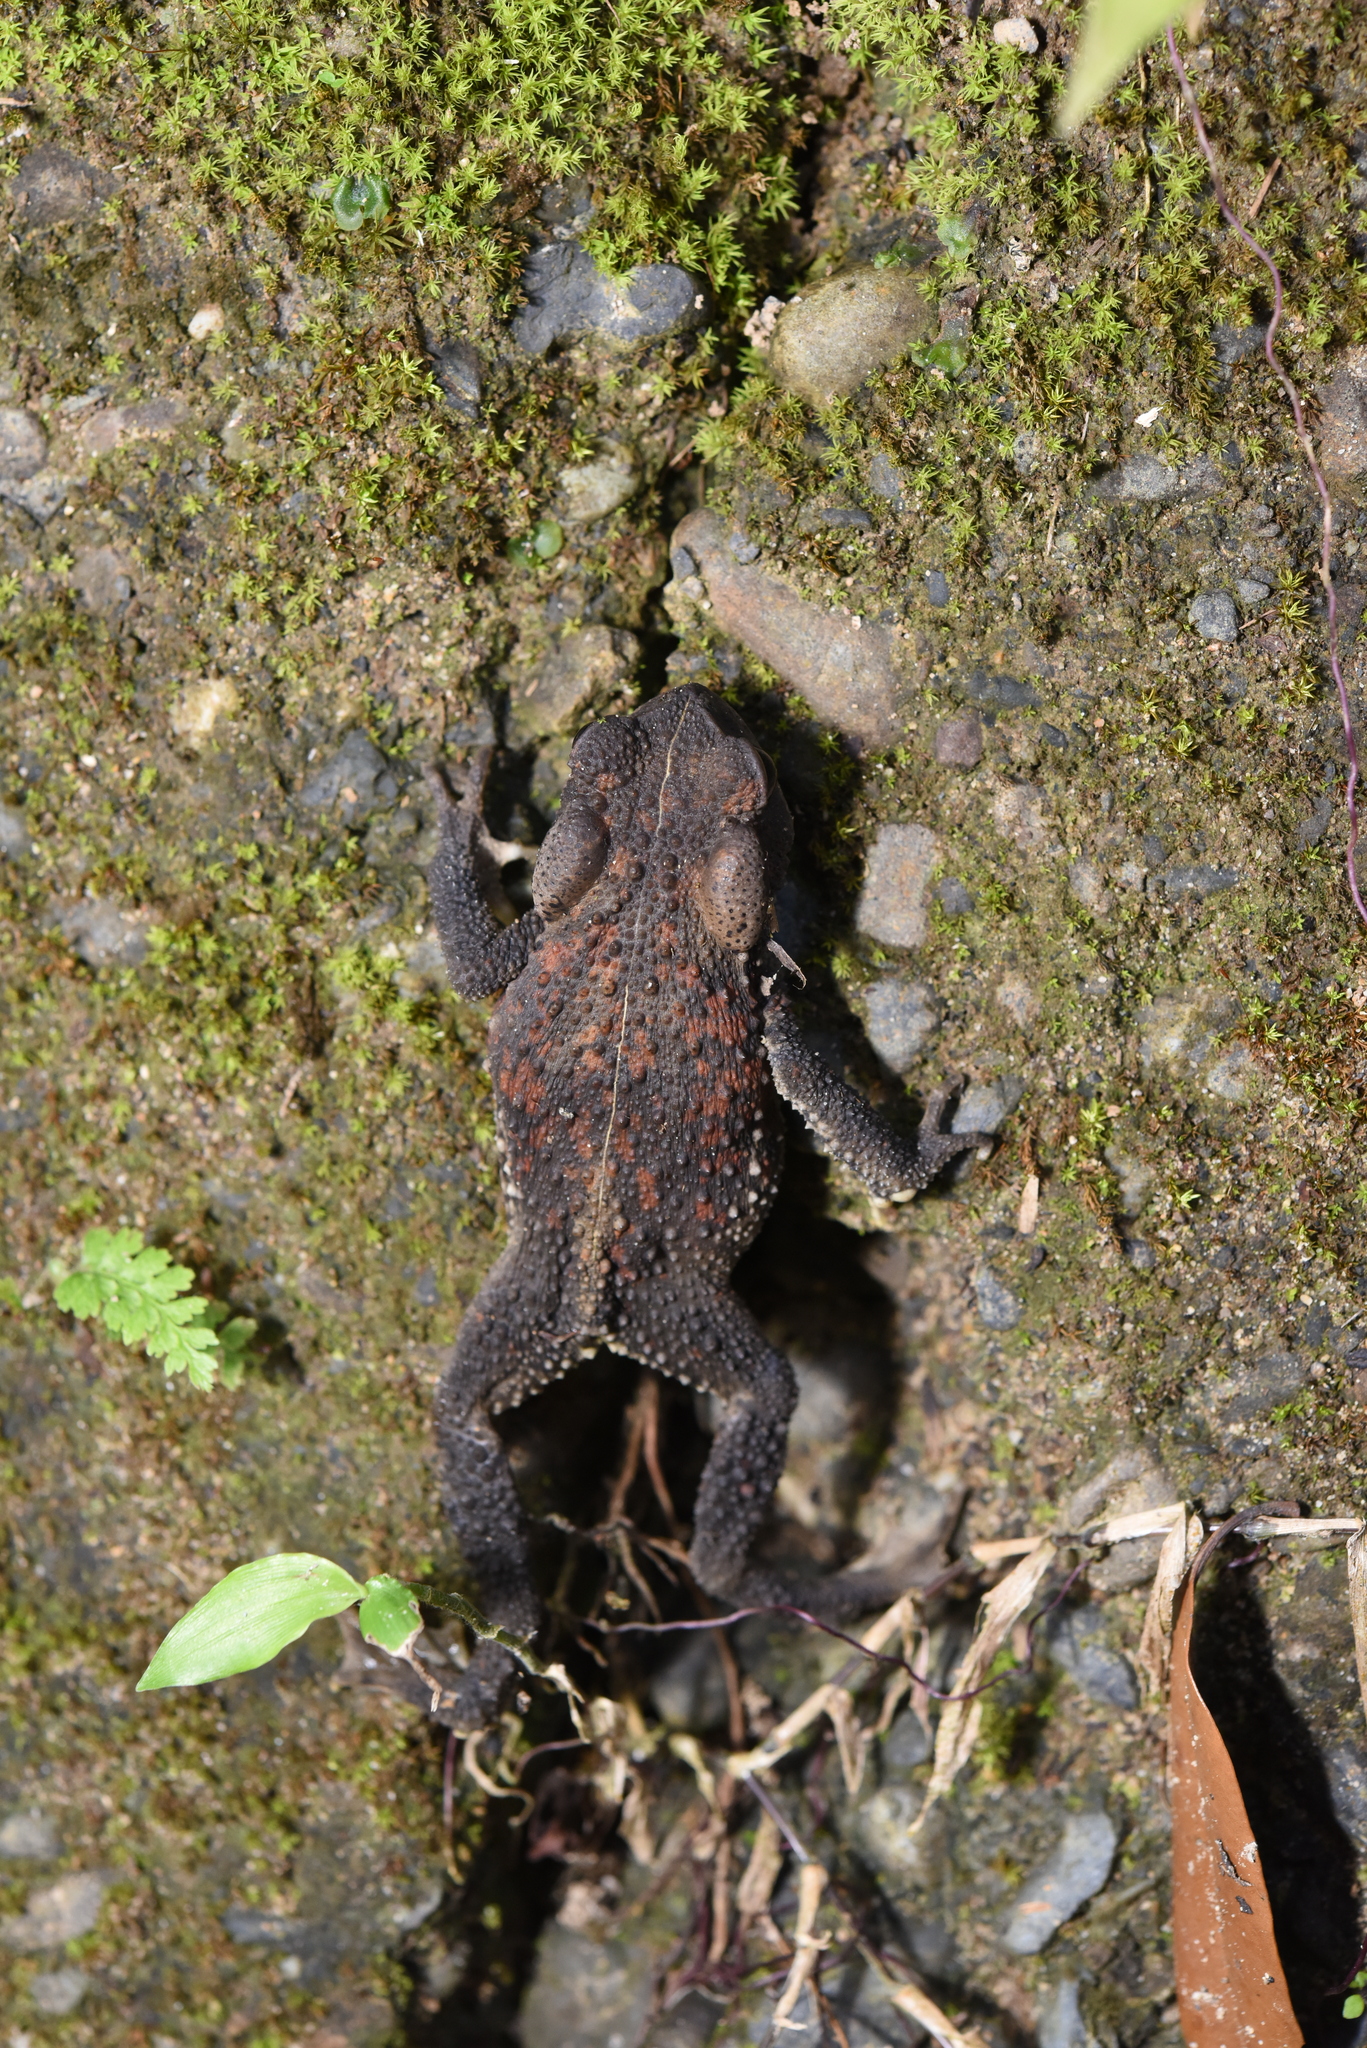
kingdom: Animalia
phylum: Chordata
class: Amphibia
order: Anura
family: Bufonidae
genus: Bufo
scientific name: Bufo bankorensis
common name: Bankor toad
